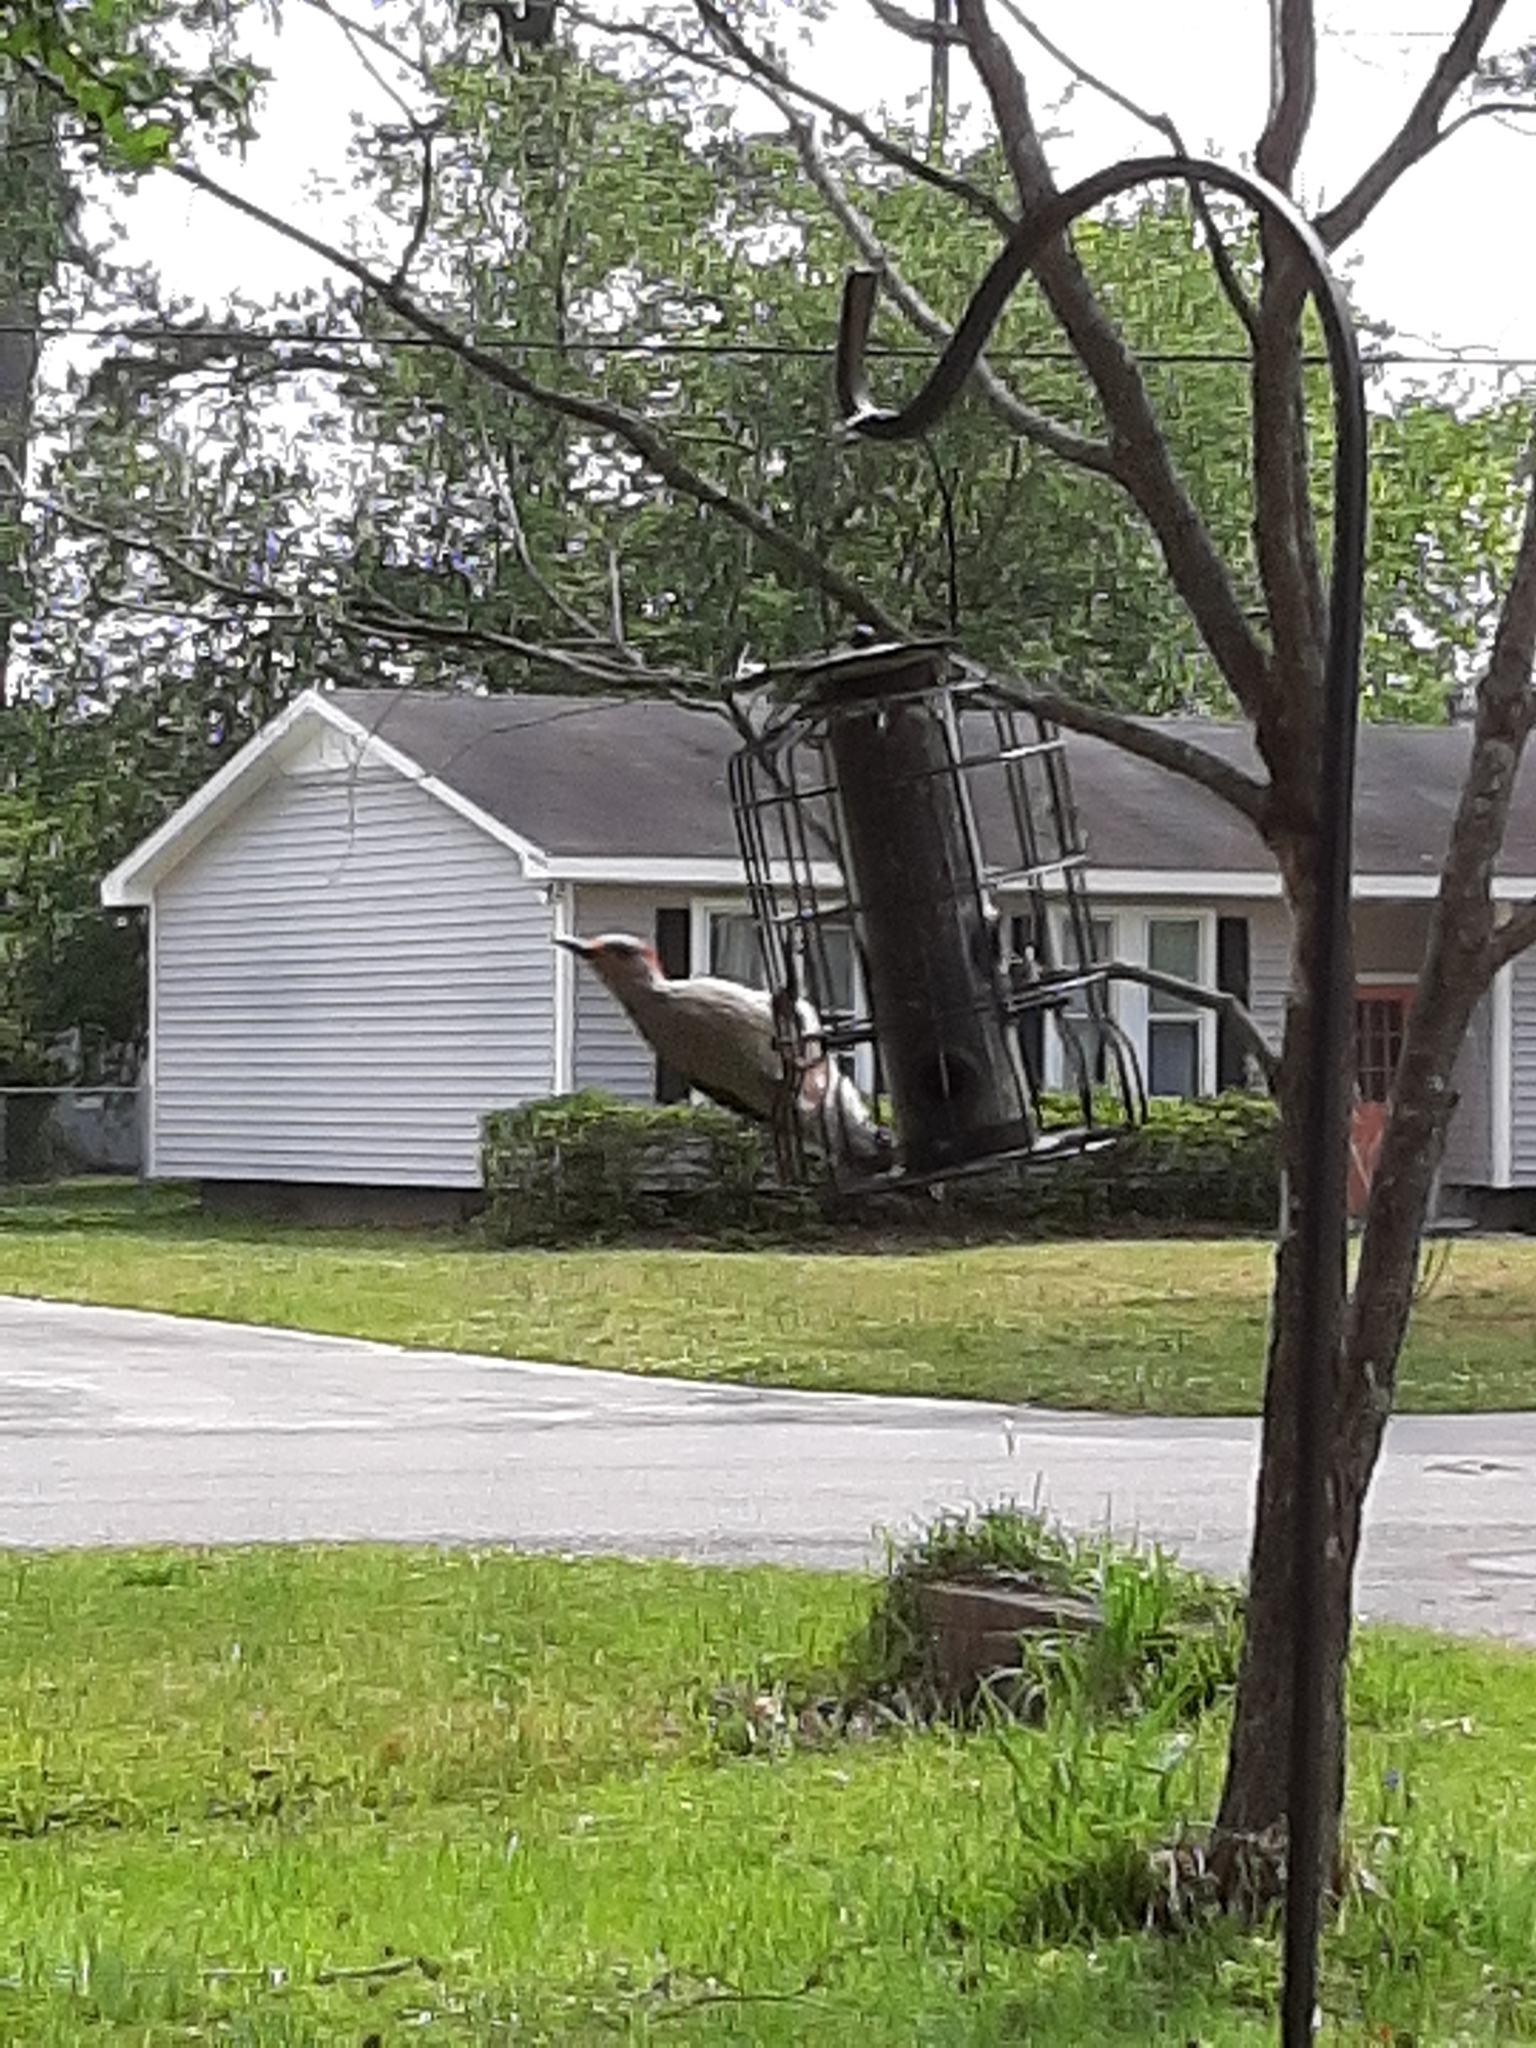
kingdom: Animalia
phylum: Chordata
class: Aves
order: Piciformes
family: Picidae
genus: Melanerpes
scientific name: Melanerpes carolinus
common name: Red-bellied woodpecker
